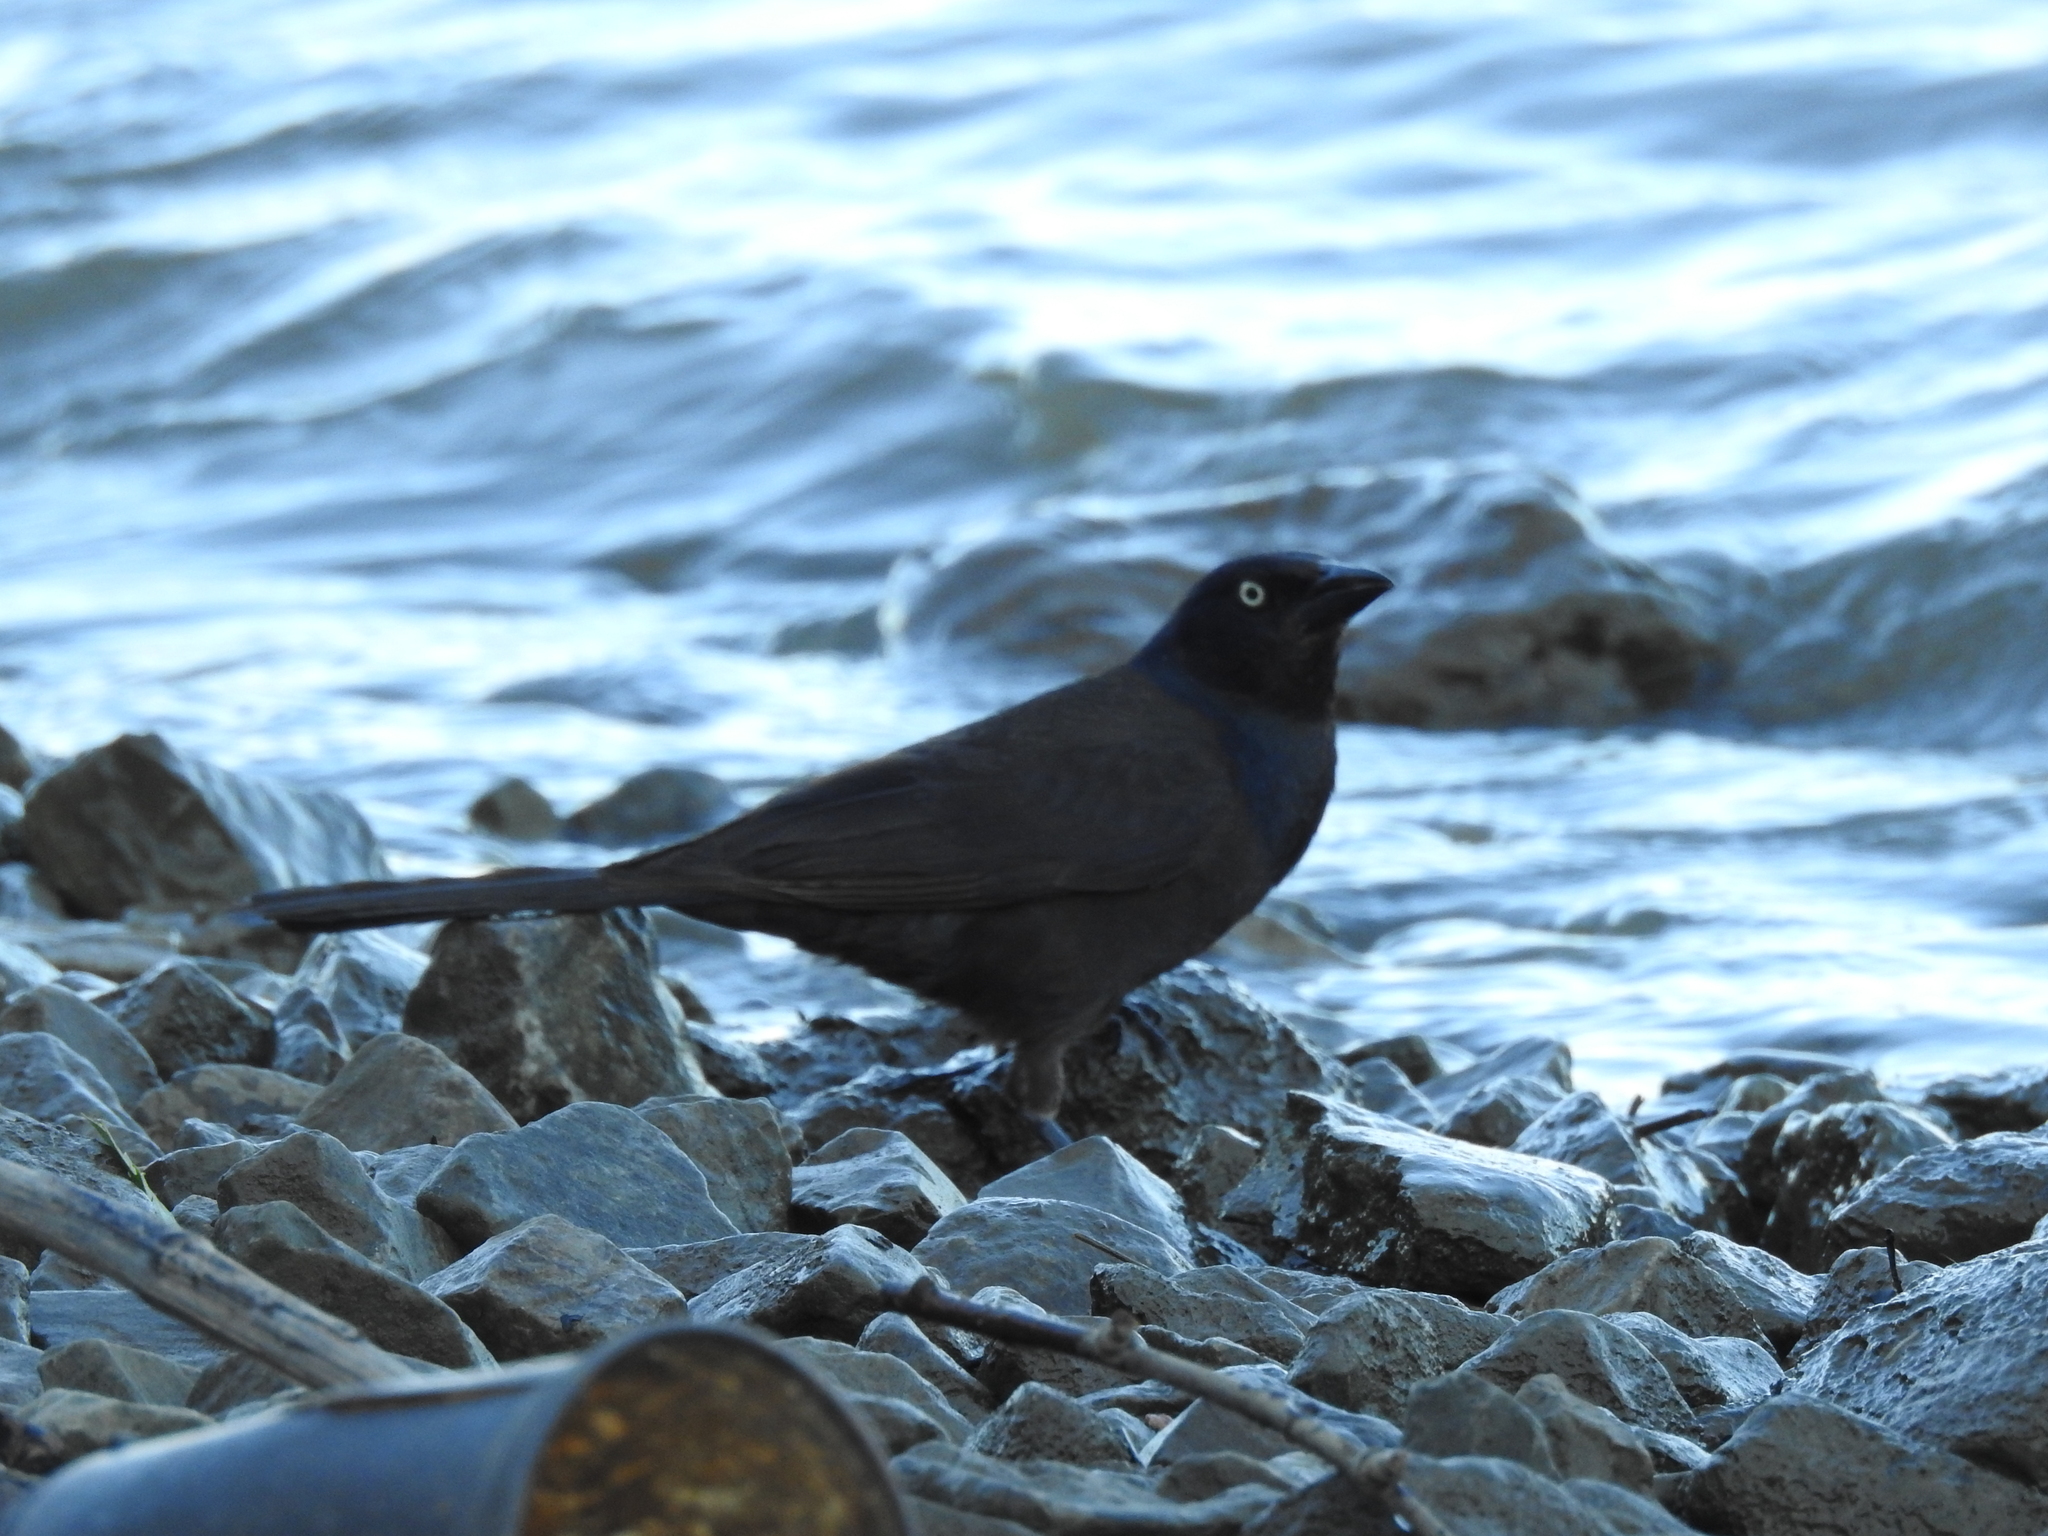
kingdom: Animalia
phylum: Chordata
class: Aves
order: Passeriformes
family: Icteridae
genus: Quiscalus
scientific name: Quiscalus quiscula
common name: Common grackle
